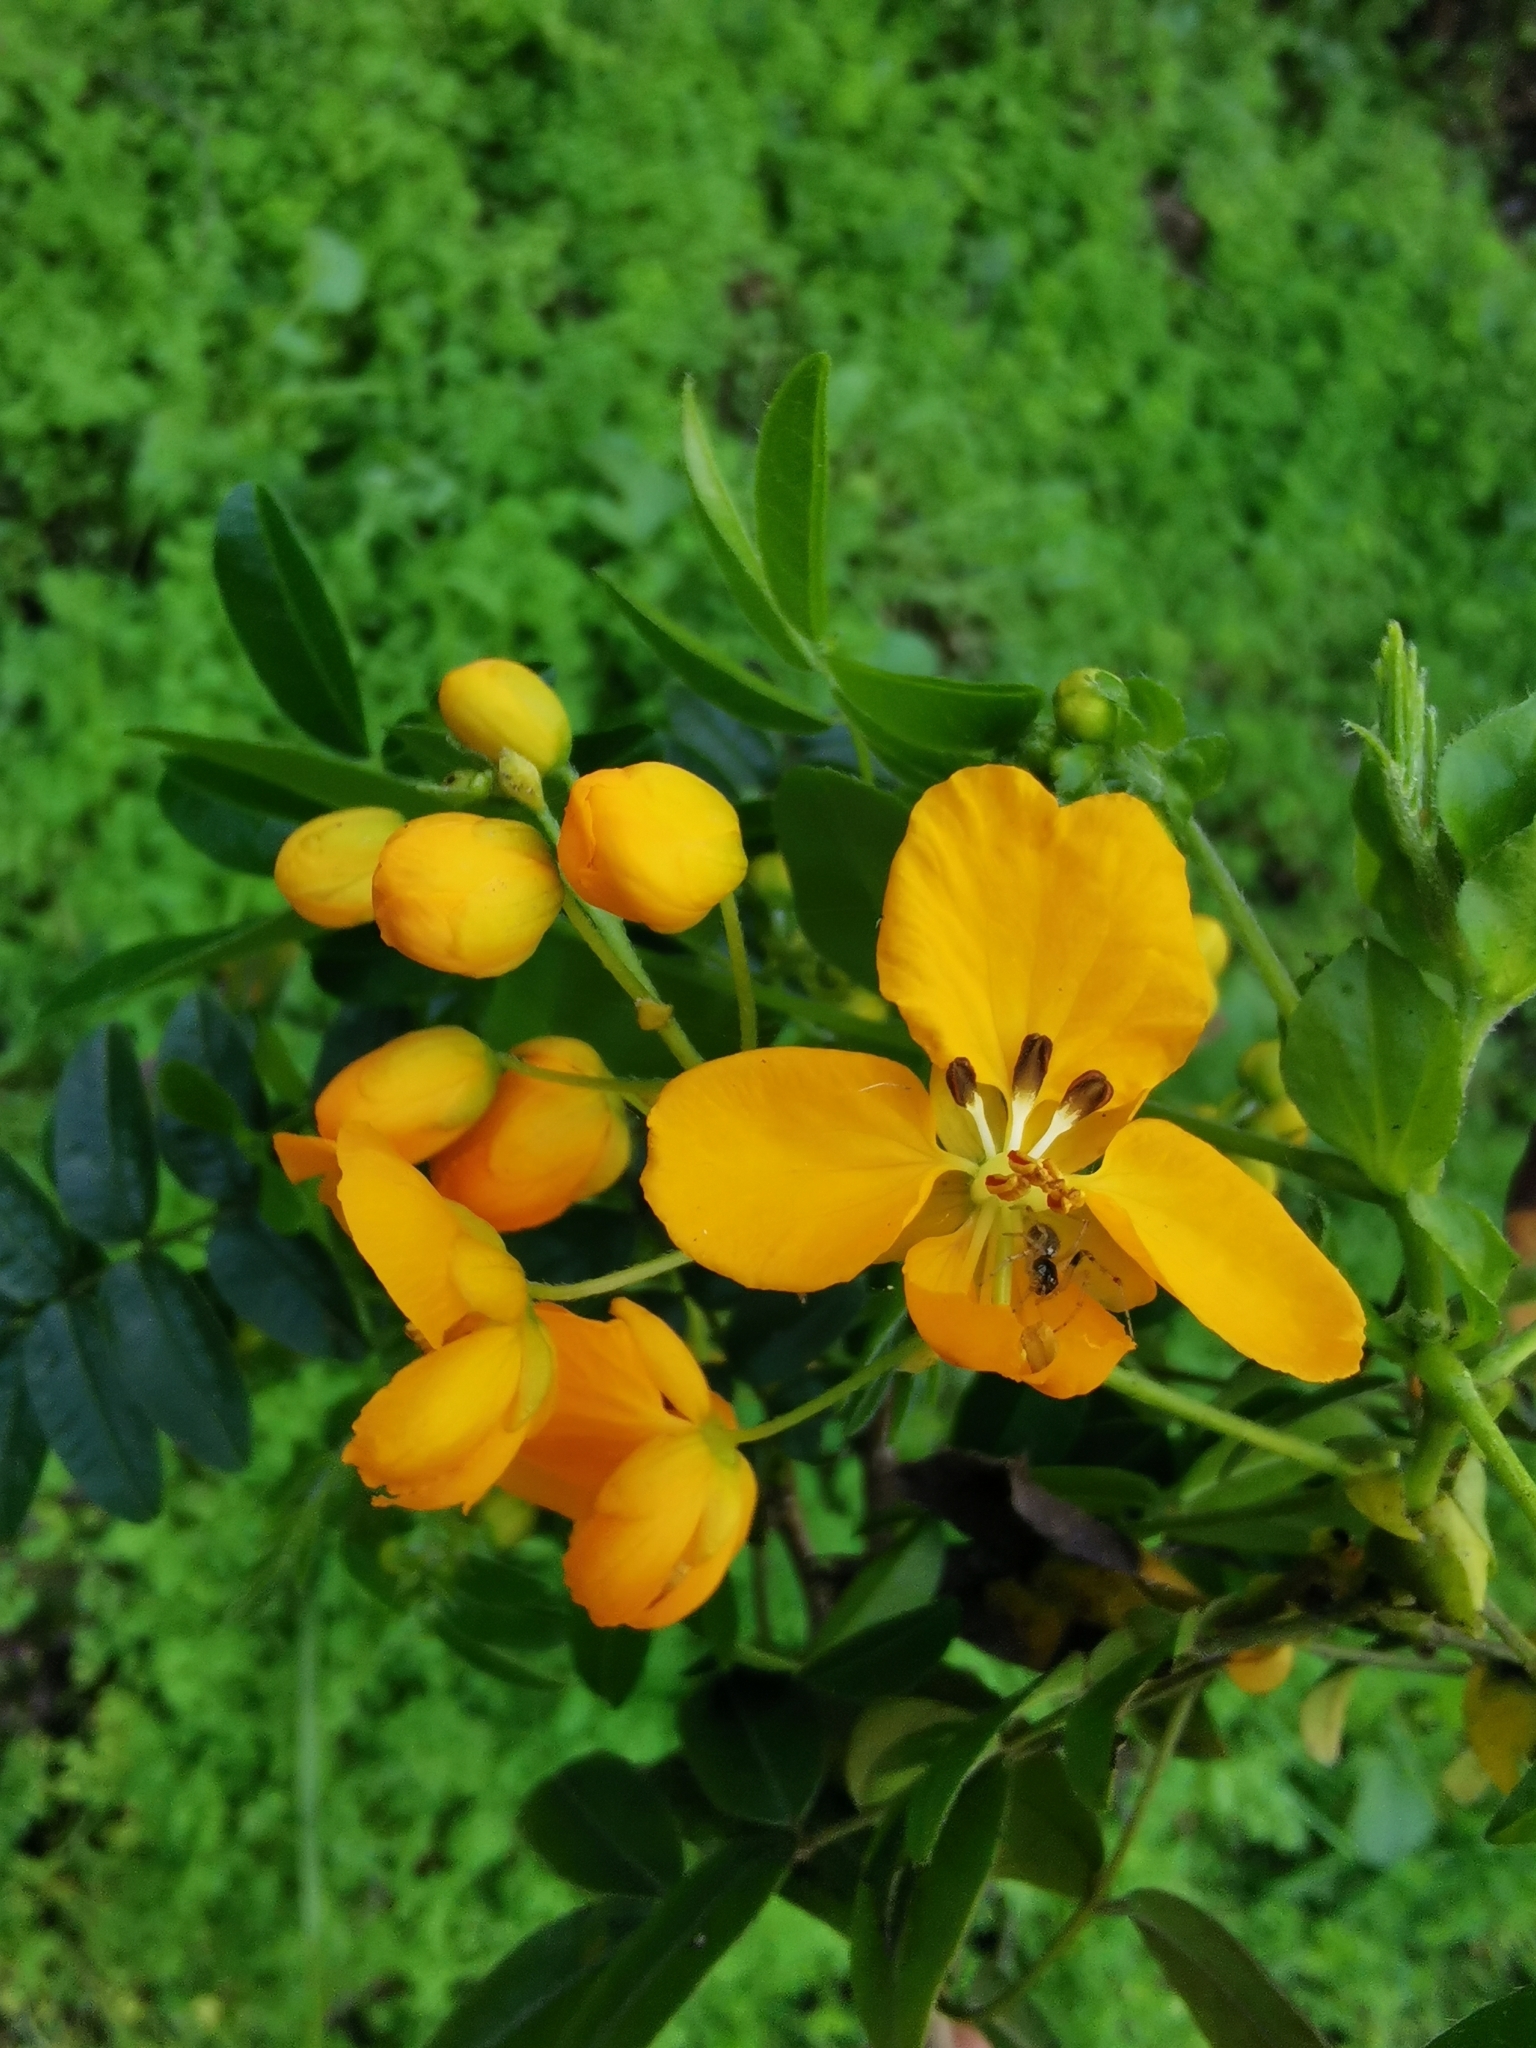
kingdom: Plantae
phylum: Tracheophyta
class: Magnoliopsida
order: Fabales
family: Fabaceae
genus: Senna
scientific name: Senna stipulacea
